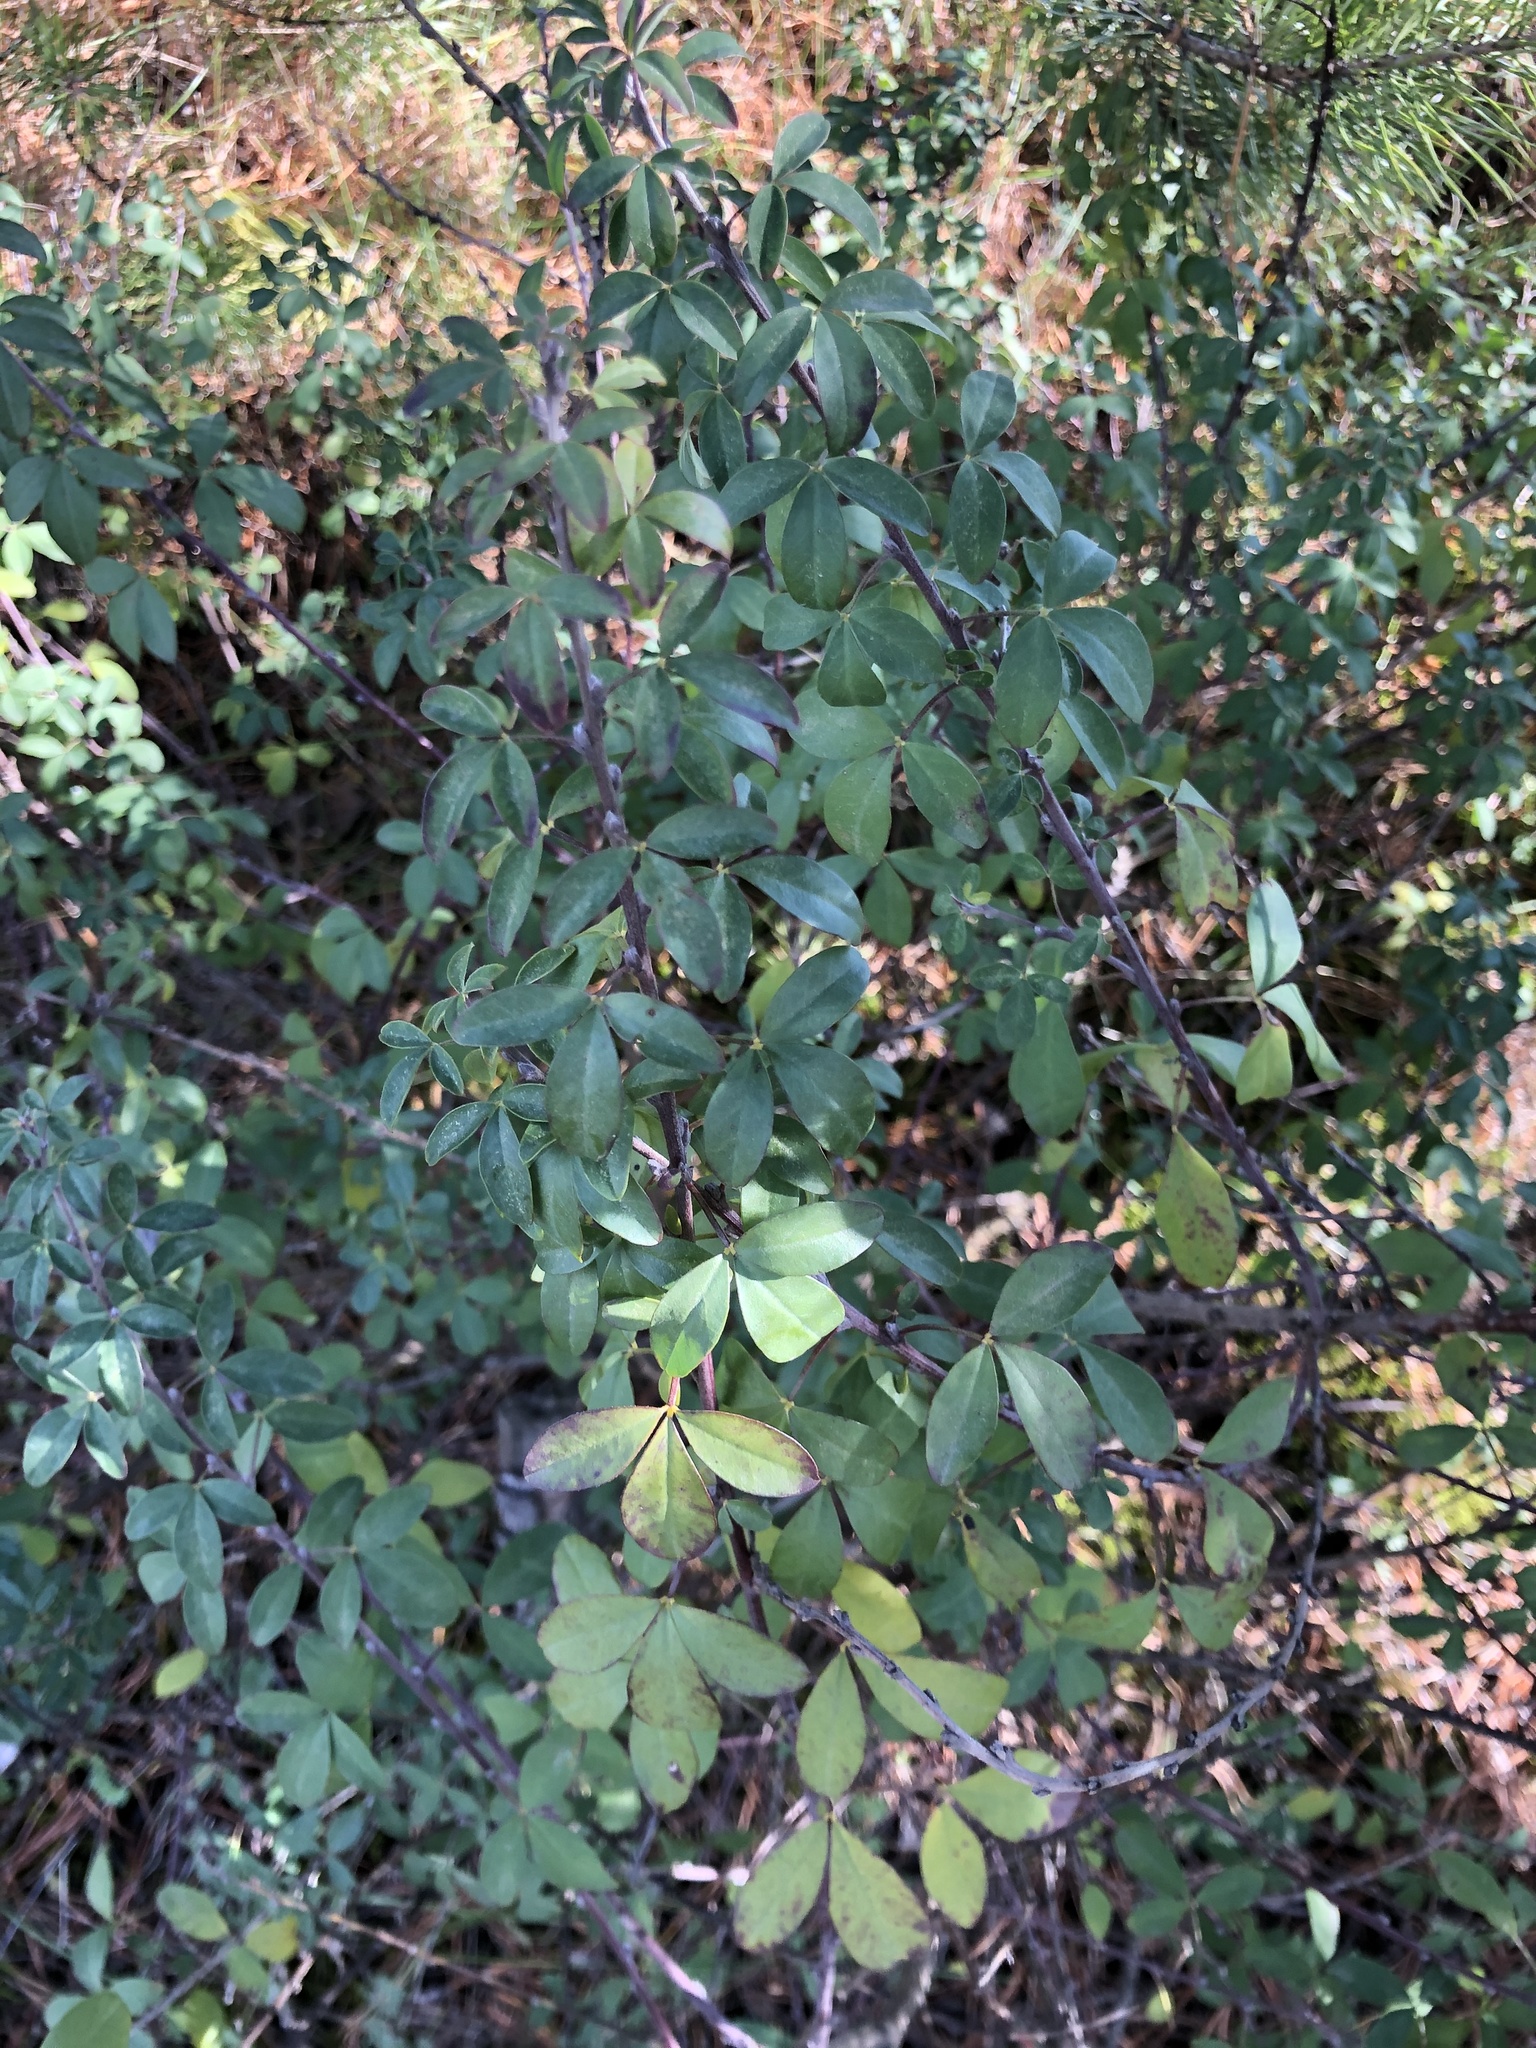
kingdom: Plantae
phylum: Tracheophyta
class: Magnoliopsida
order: Fabales
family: Fabaceae
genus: Chamaecytisus
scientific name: Chamaecytisus ruthenicus
